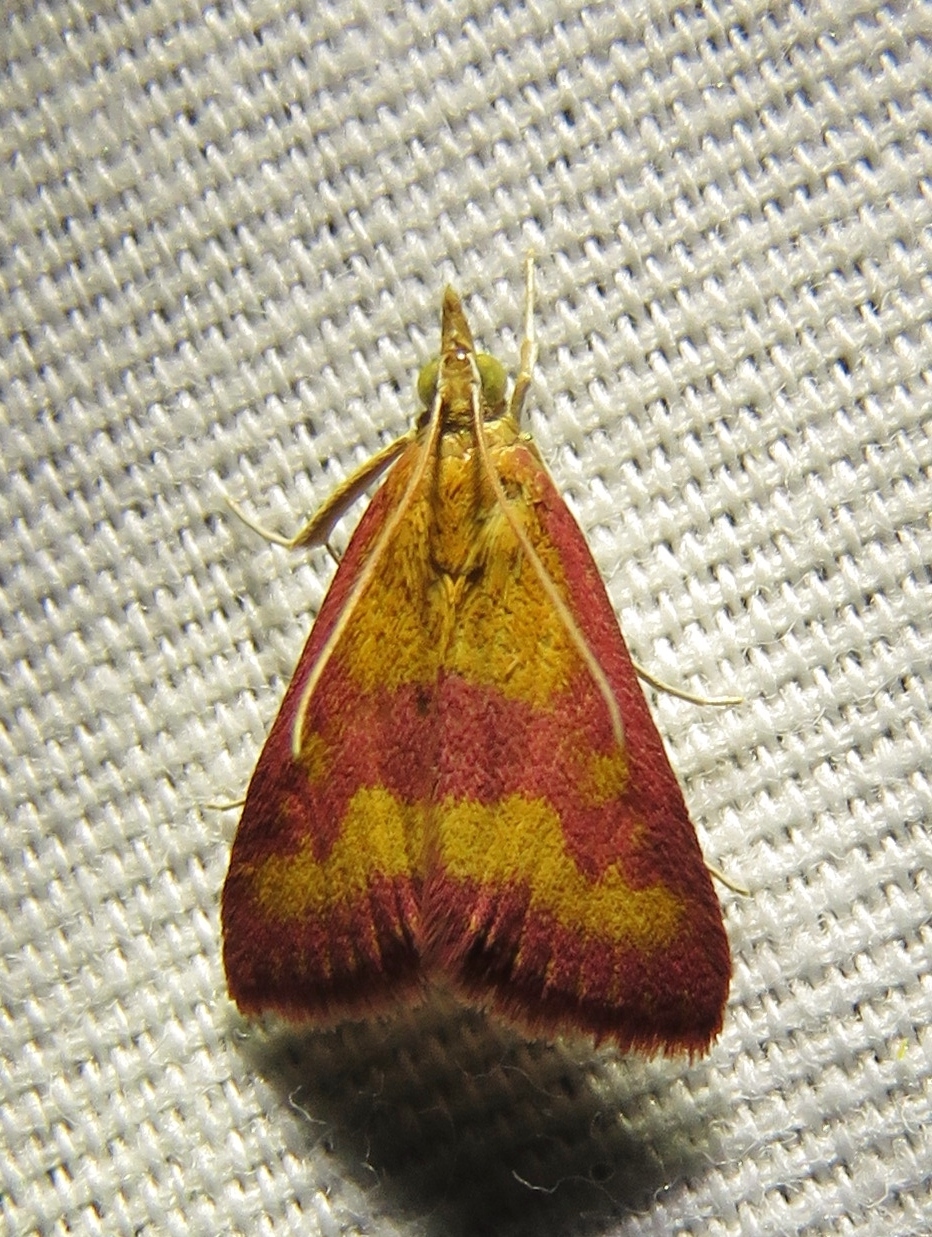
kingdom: Animalia
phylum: Arthropoda
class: Insecta
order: Lepidoptera
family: Crambidae
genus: Pyrausta
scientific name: Pyrausta laticlavia
